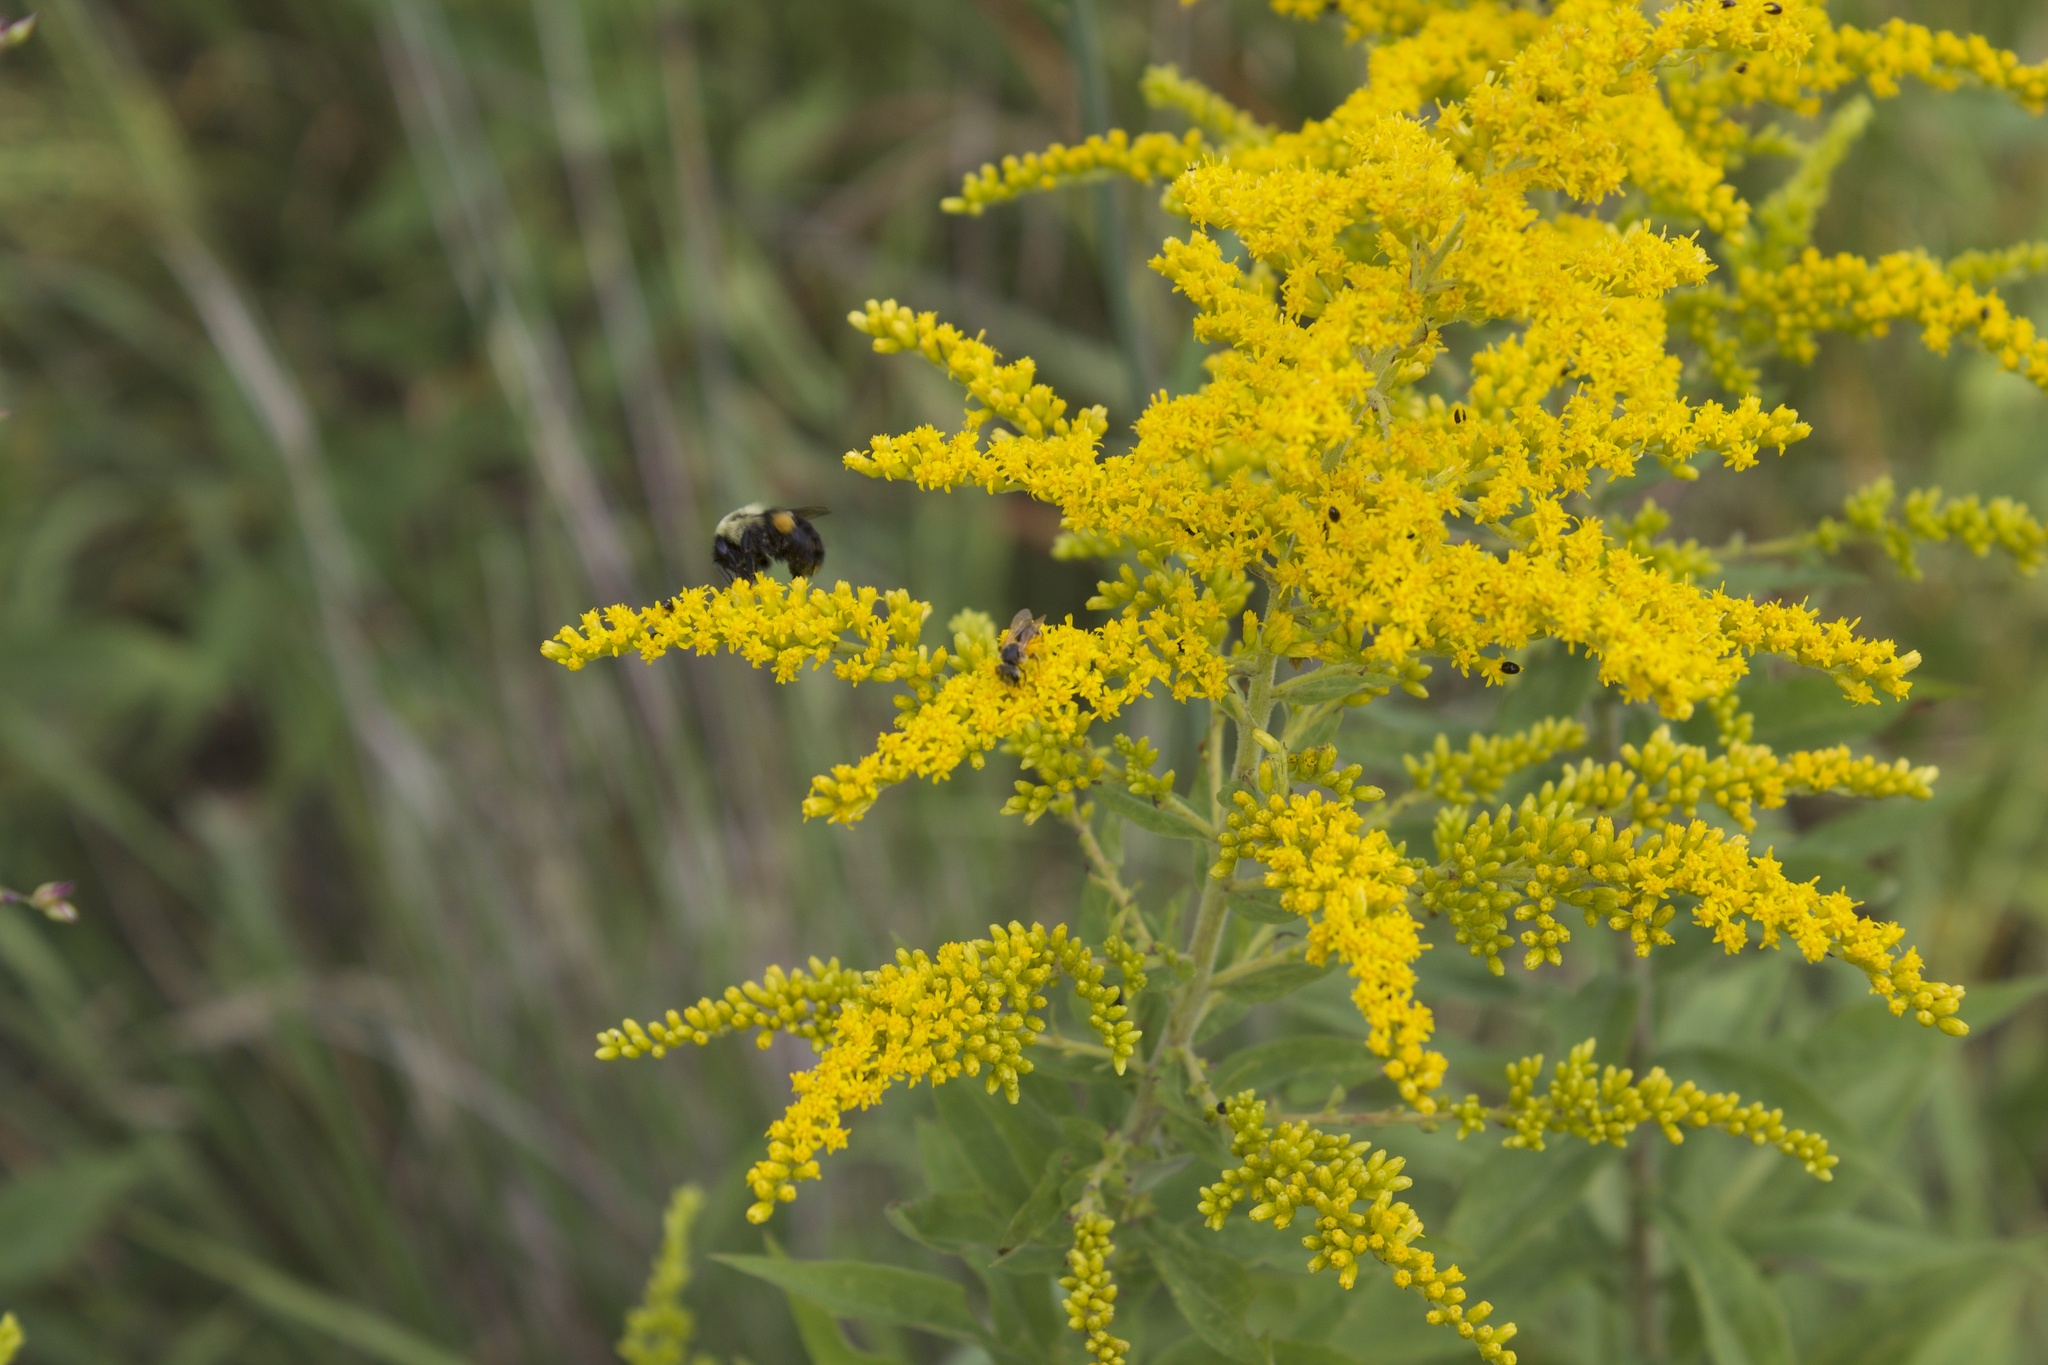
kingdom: Animalia
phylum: Arthropoda
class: Insecta
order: Hymenoptera
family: Apidae
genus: Bombus
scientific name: Bombus impatiens
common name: Common eastern bumble bee
